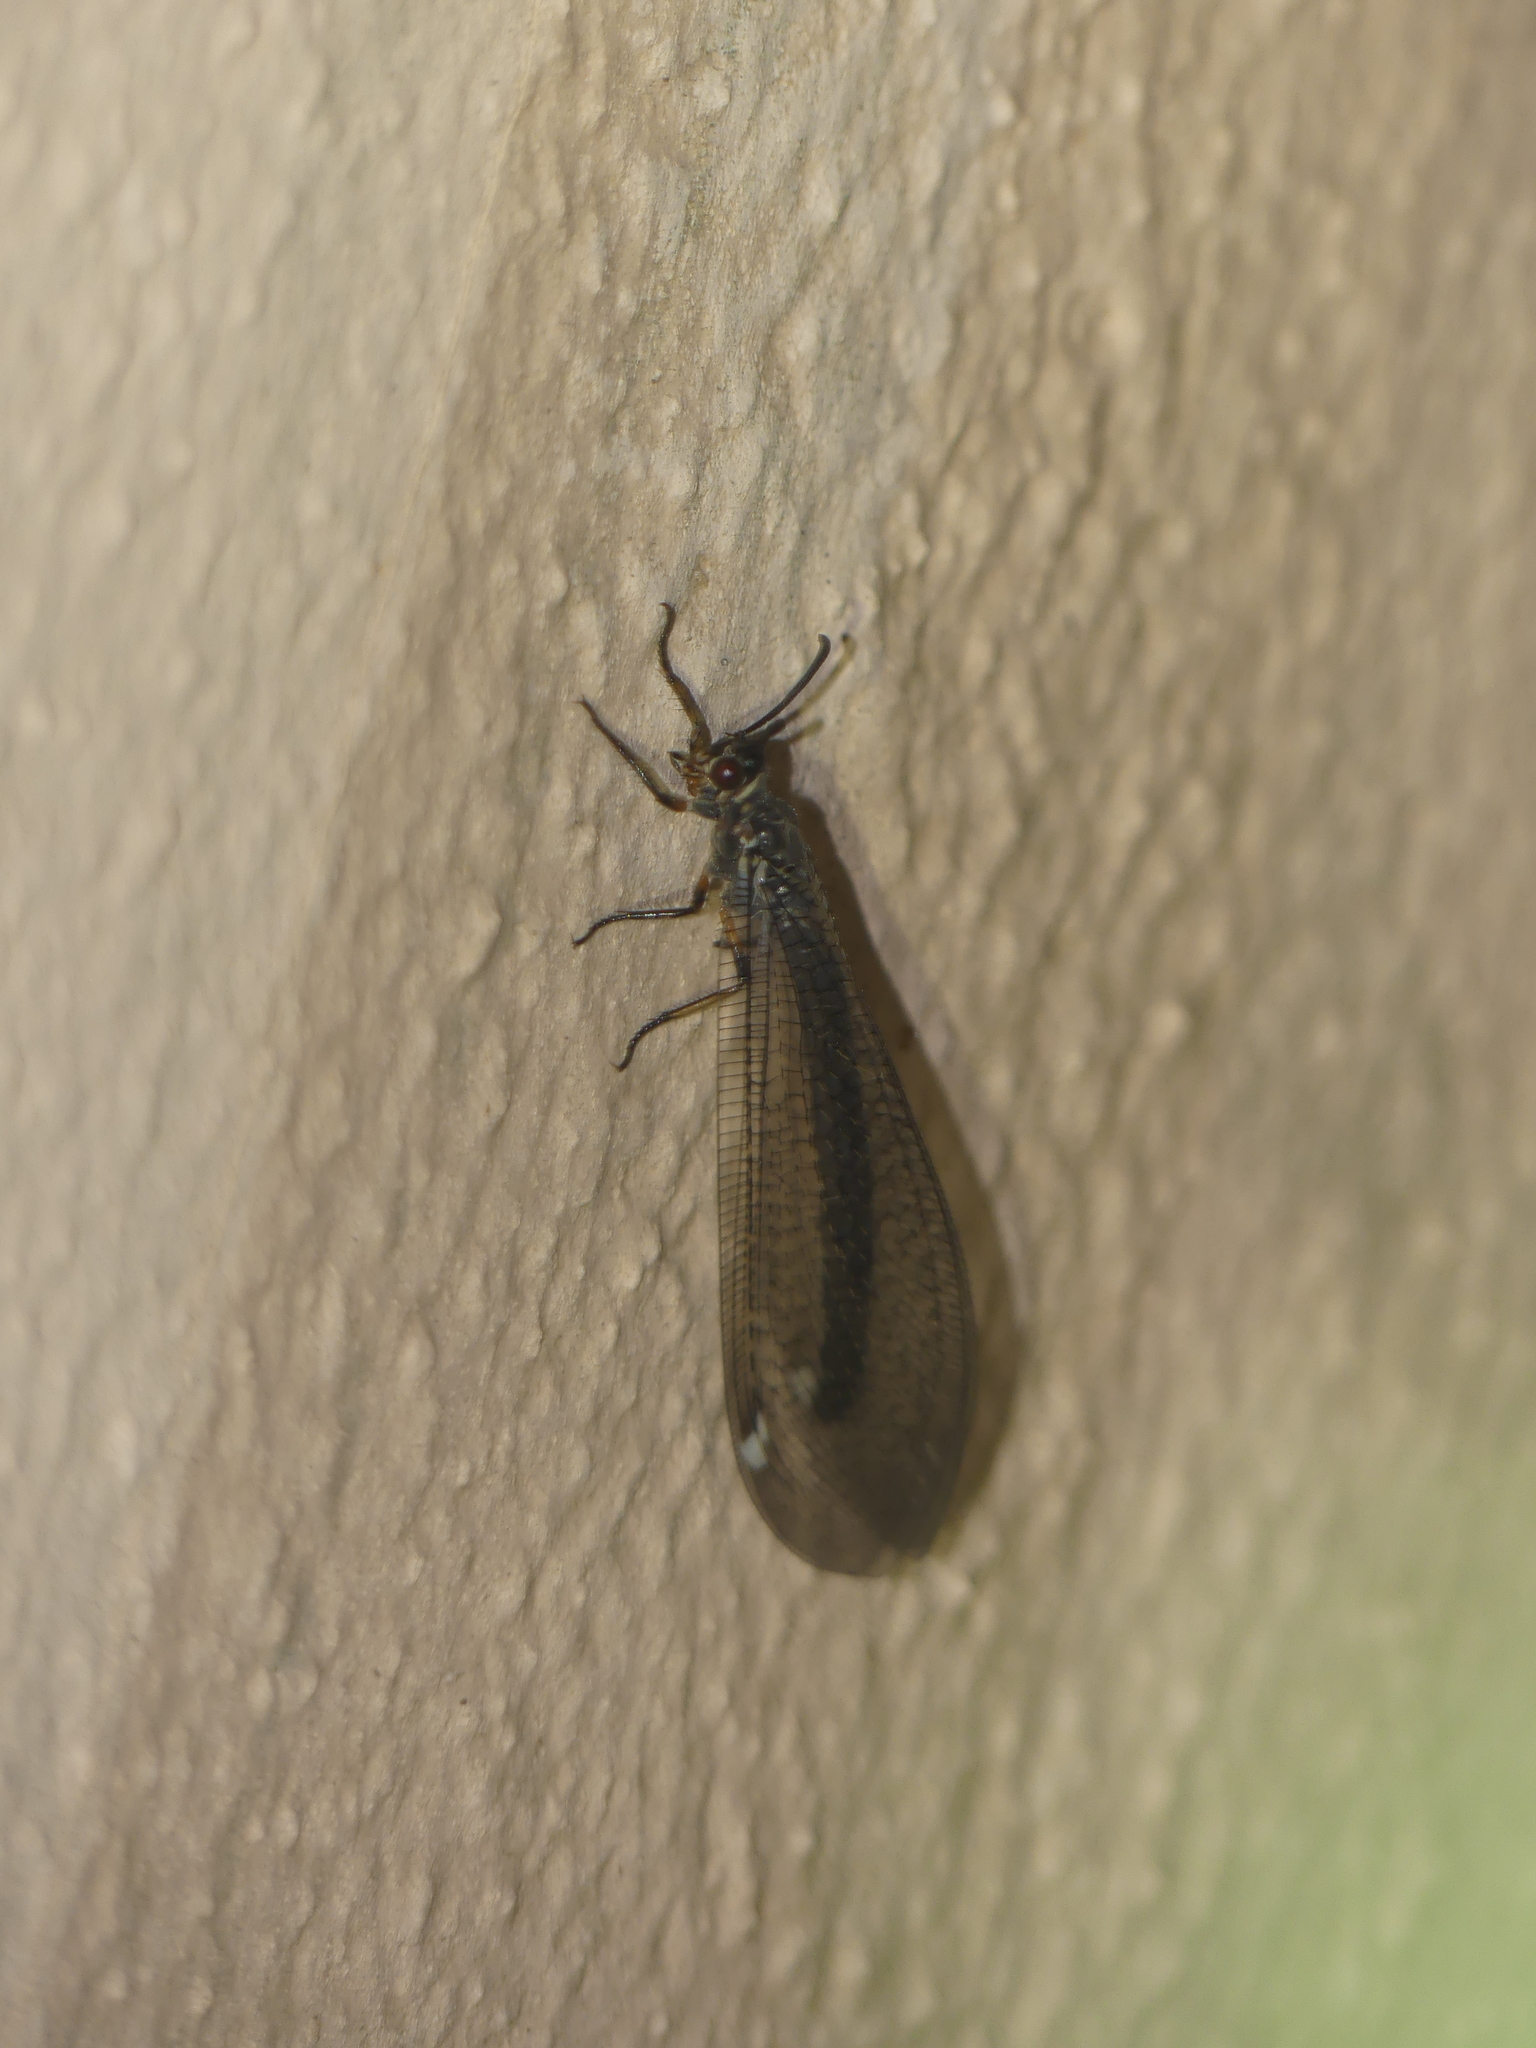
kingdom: Animalia
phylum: Arthropoda
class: Insecta
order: Neuroptera
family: Myrmeleontidae
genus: Myrmeleon
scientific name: Myrmeleon formicarius
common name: Ant-lion
